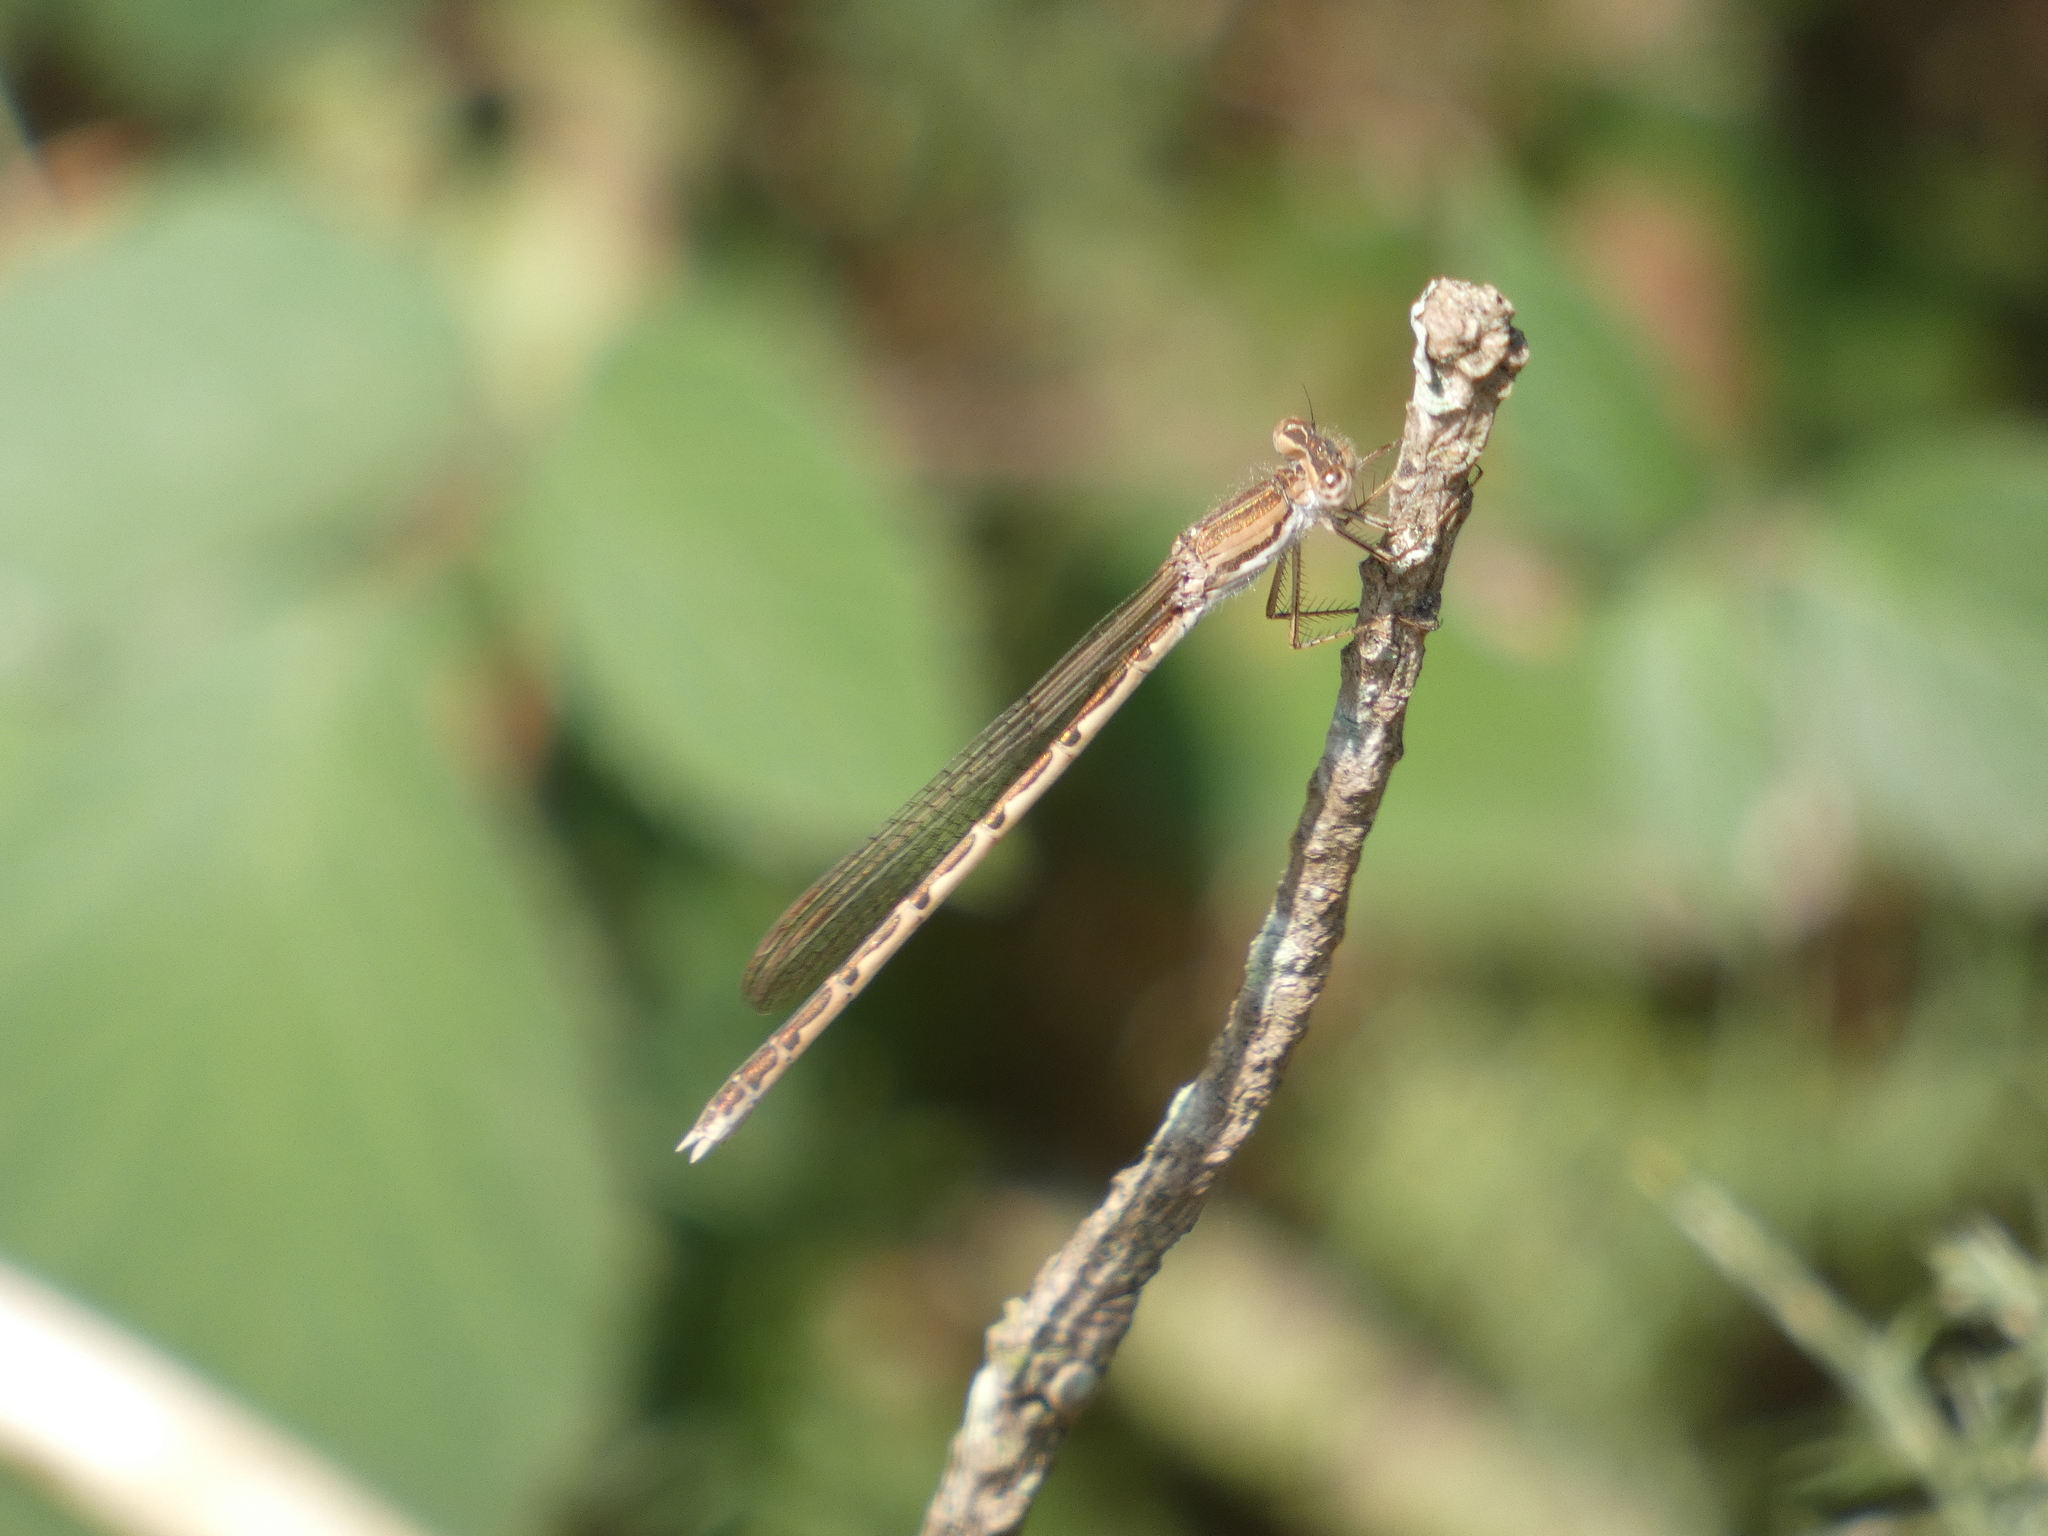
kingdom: Animalia
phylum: Arthropoda
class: Insecta
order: Odonata
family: Lestidae
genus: Sympecma
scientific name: Sympecma fusca
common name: Common winter damsel
